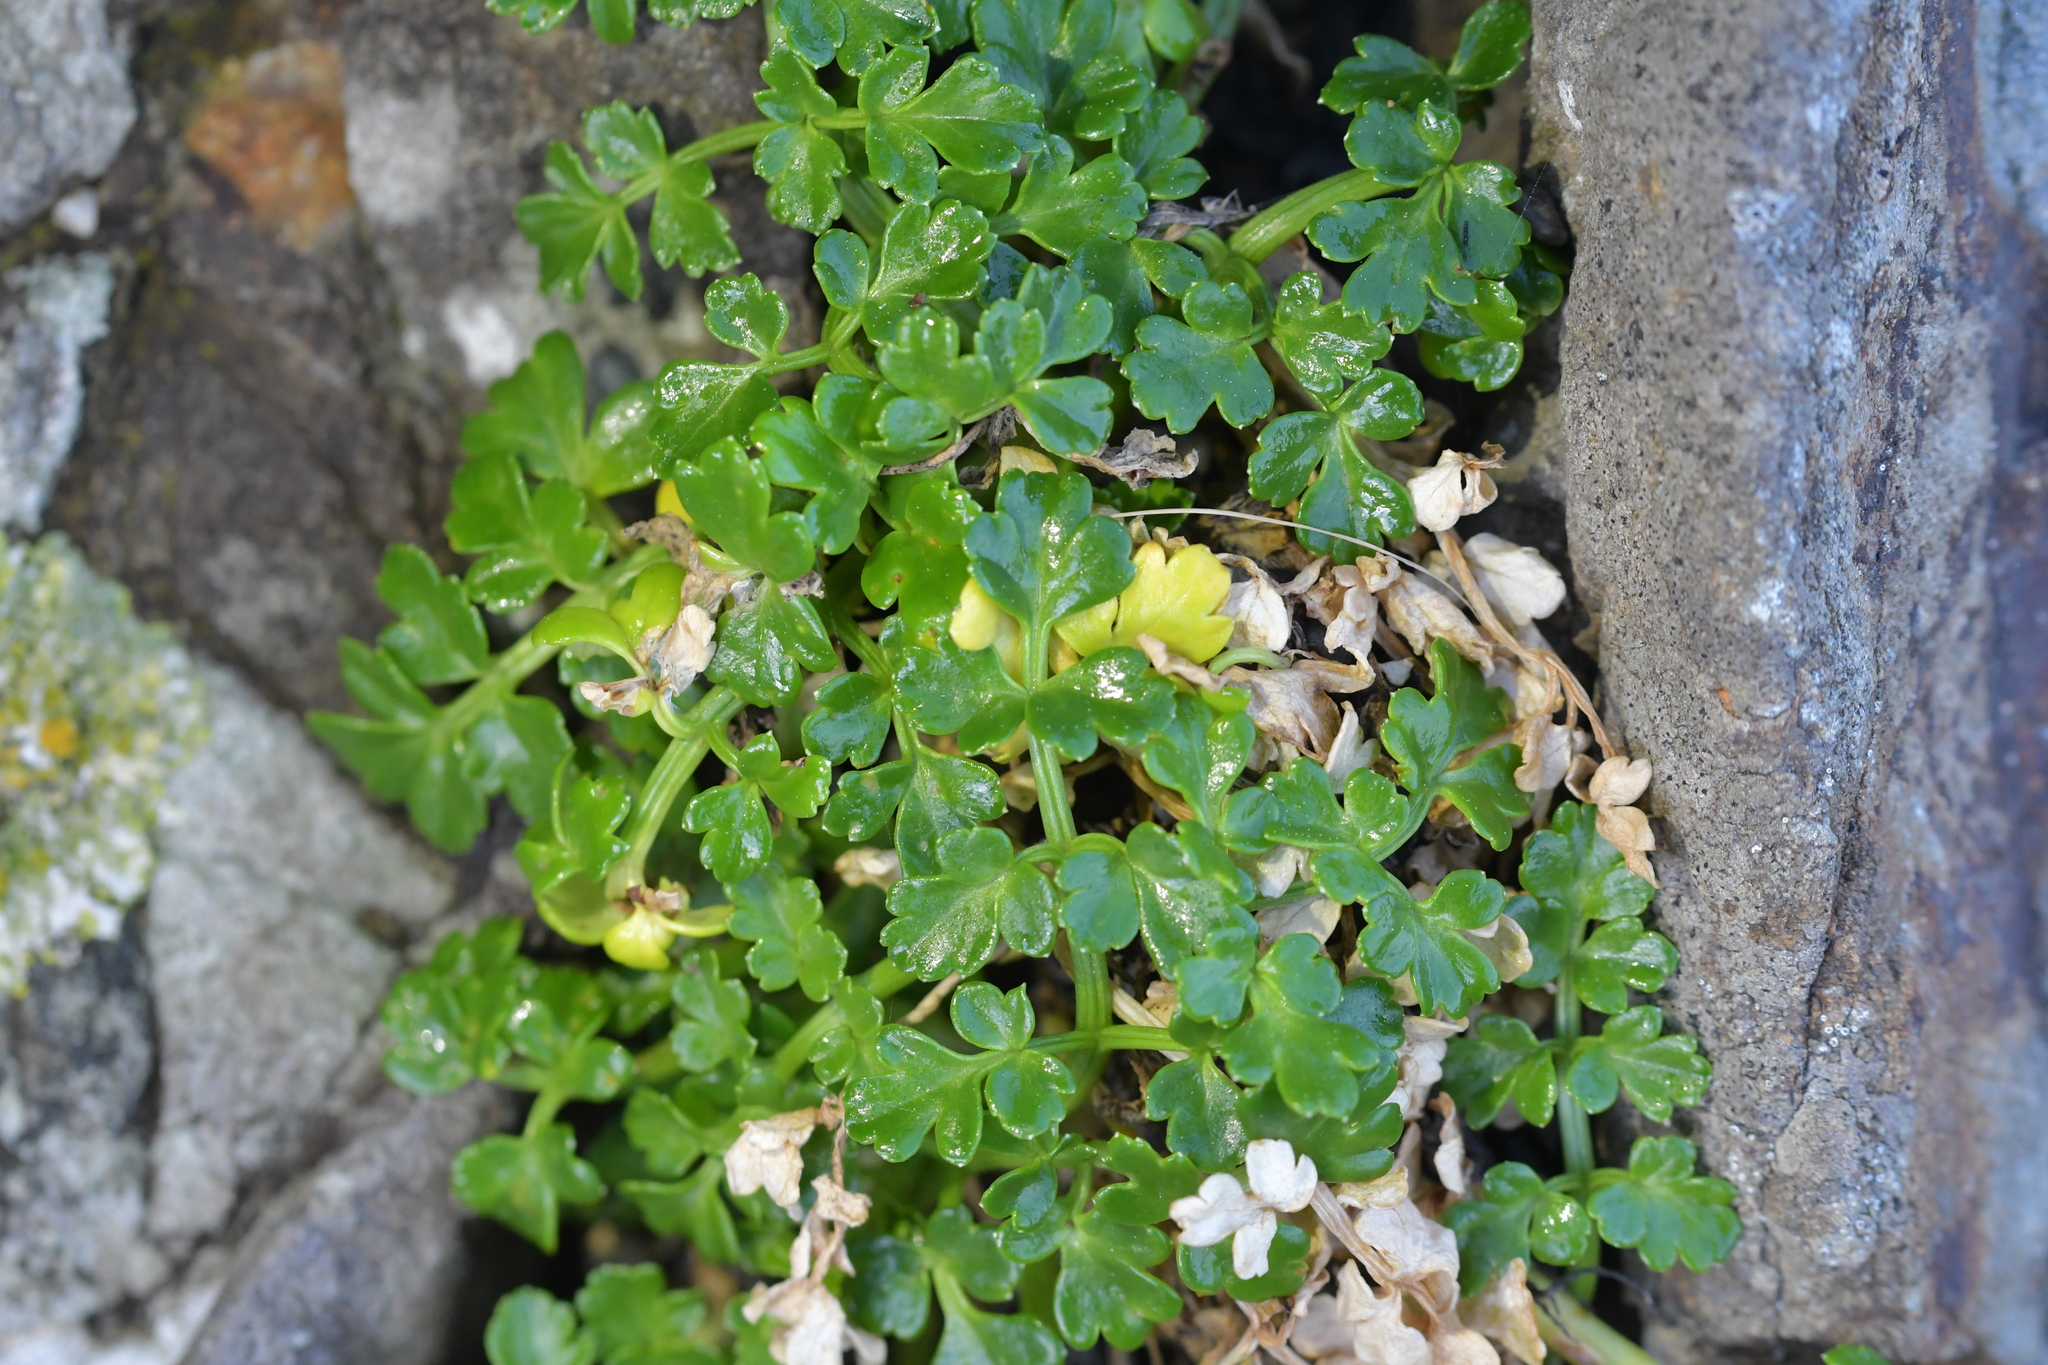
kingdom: Plantae
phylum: Tracheophyta
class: Magnoliopsida
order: Apiales
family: Apiaceae
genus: Apium
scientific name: Apium prostratum
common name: Prostrate marshwort
